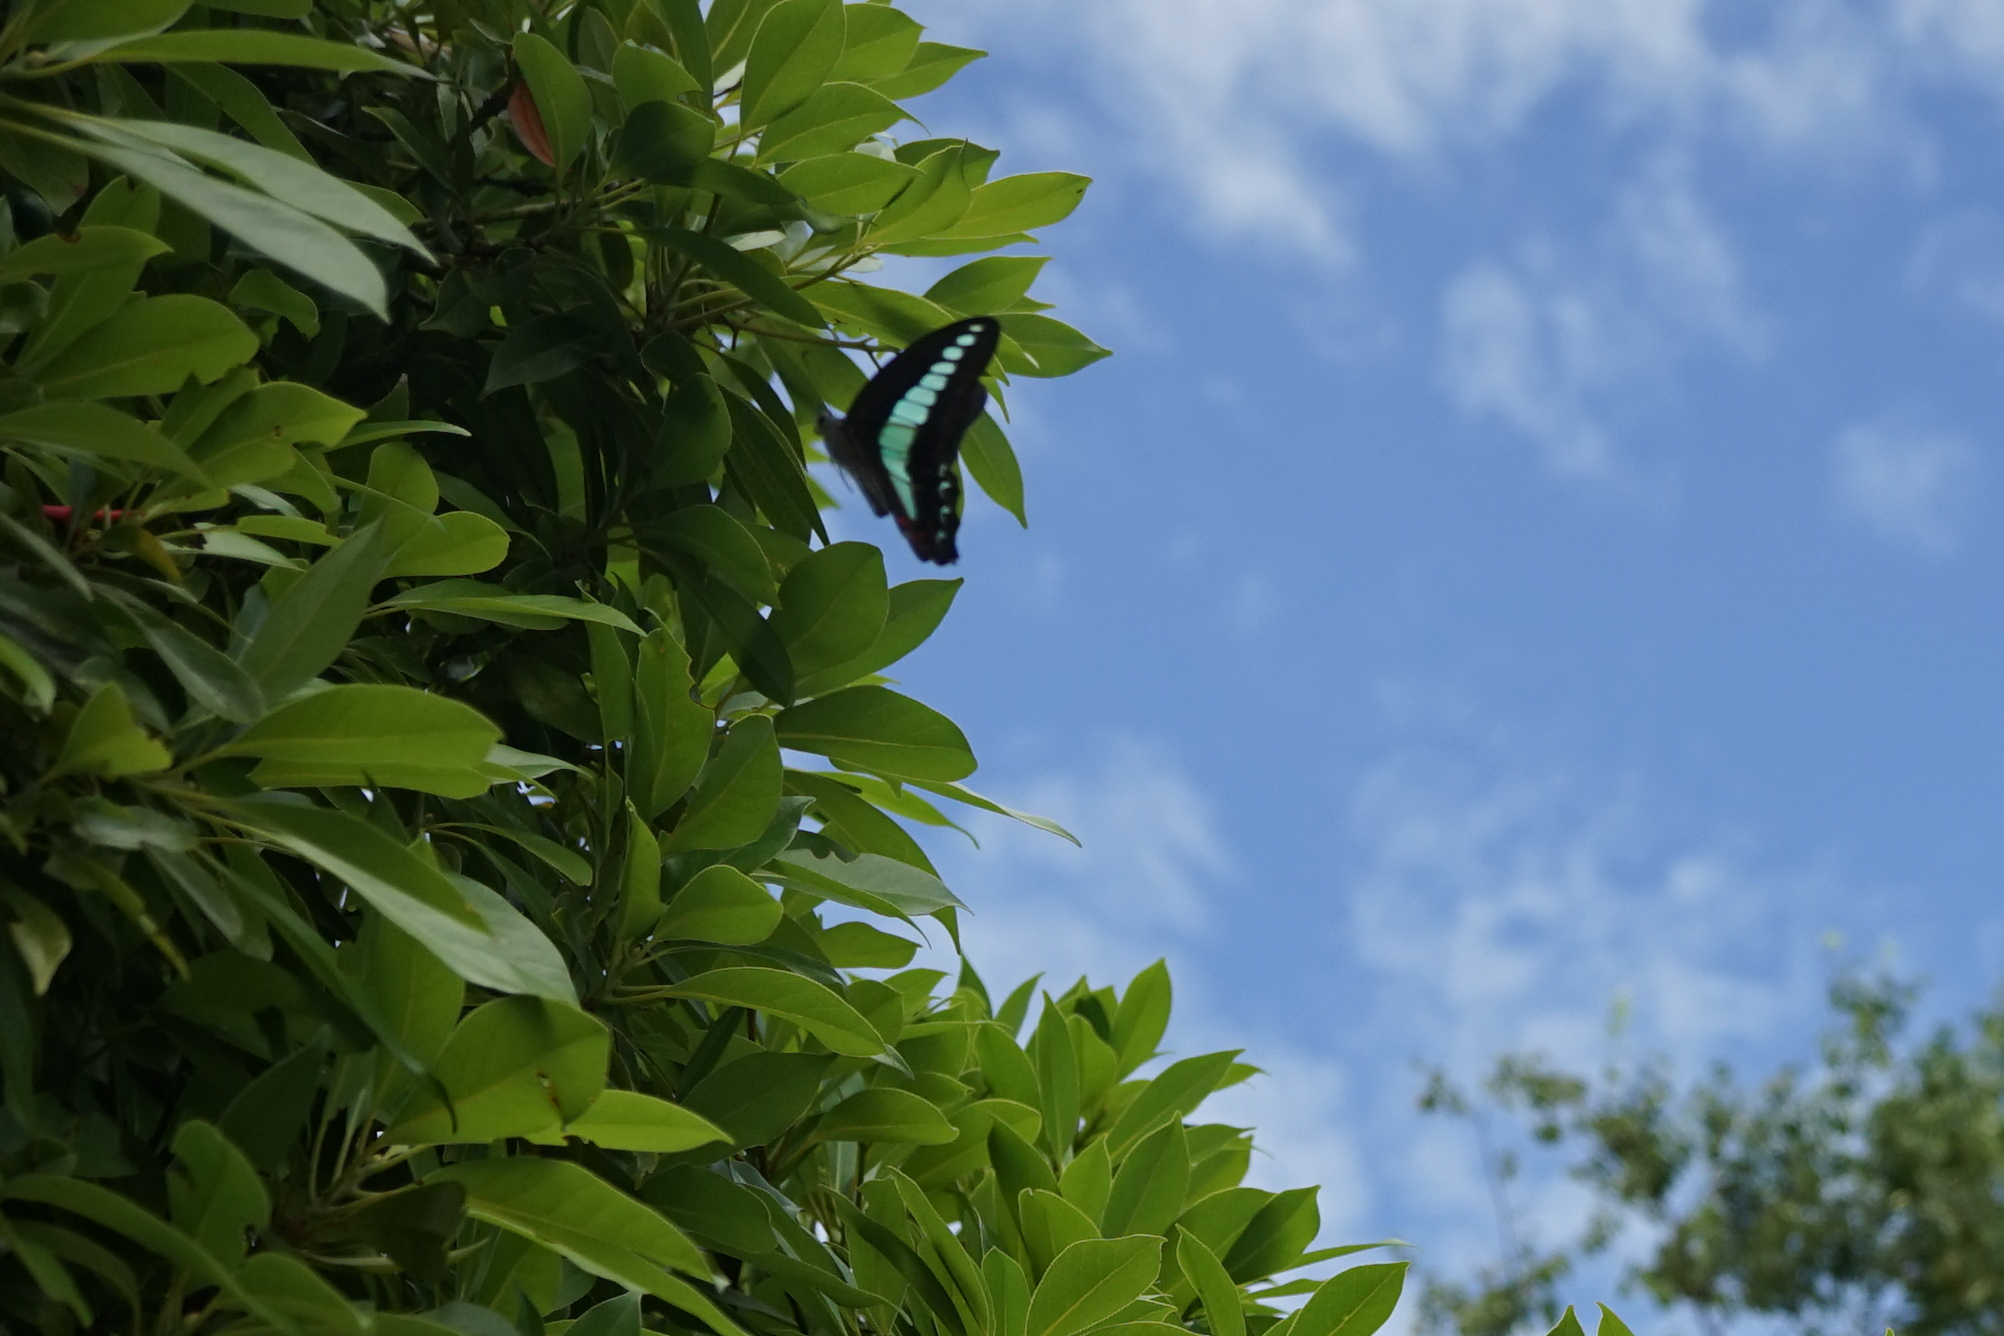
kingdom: Fungi
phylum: Ascomycota
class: Sordariomycetes
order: Microascales
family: Microascaceae
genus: Graphium
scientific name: Graphium sarpedon
